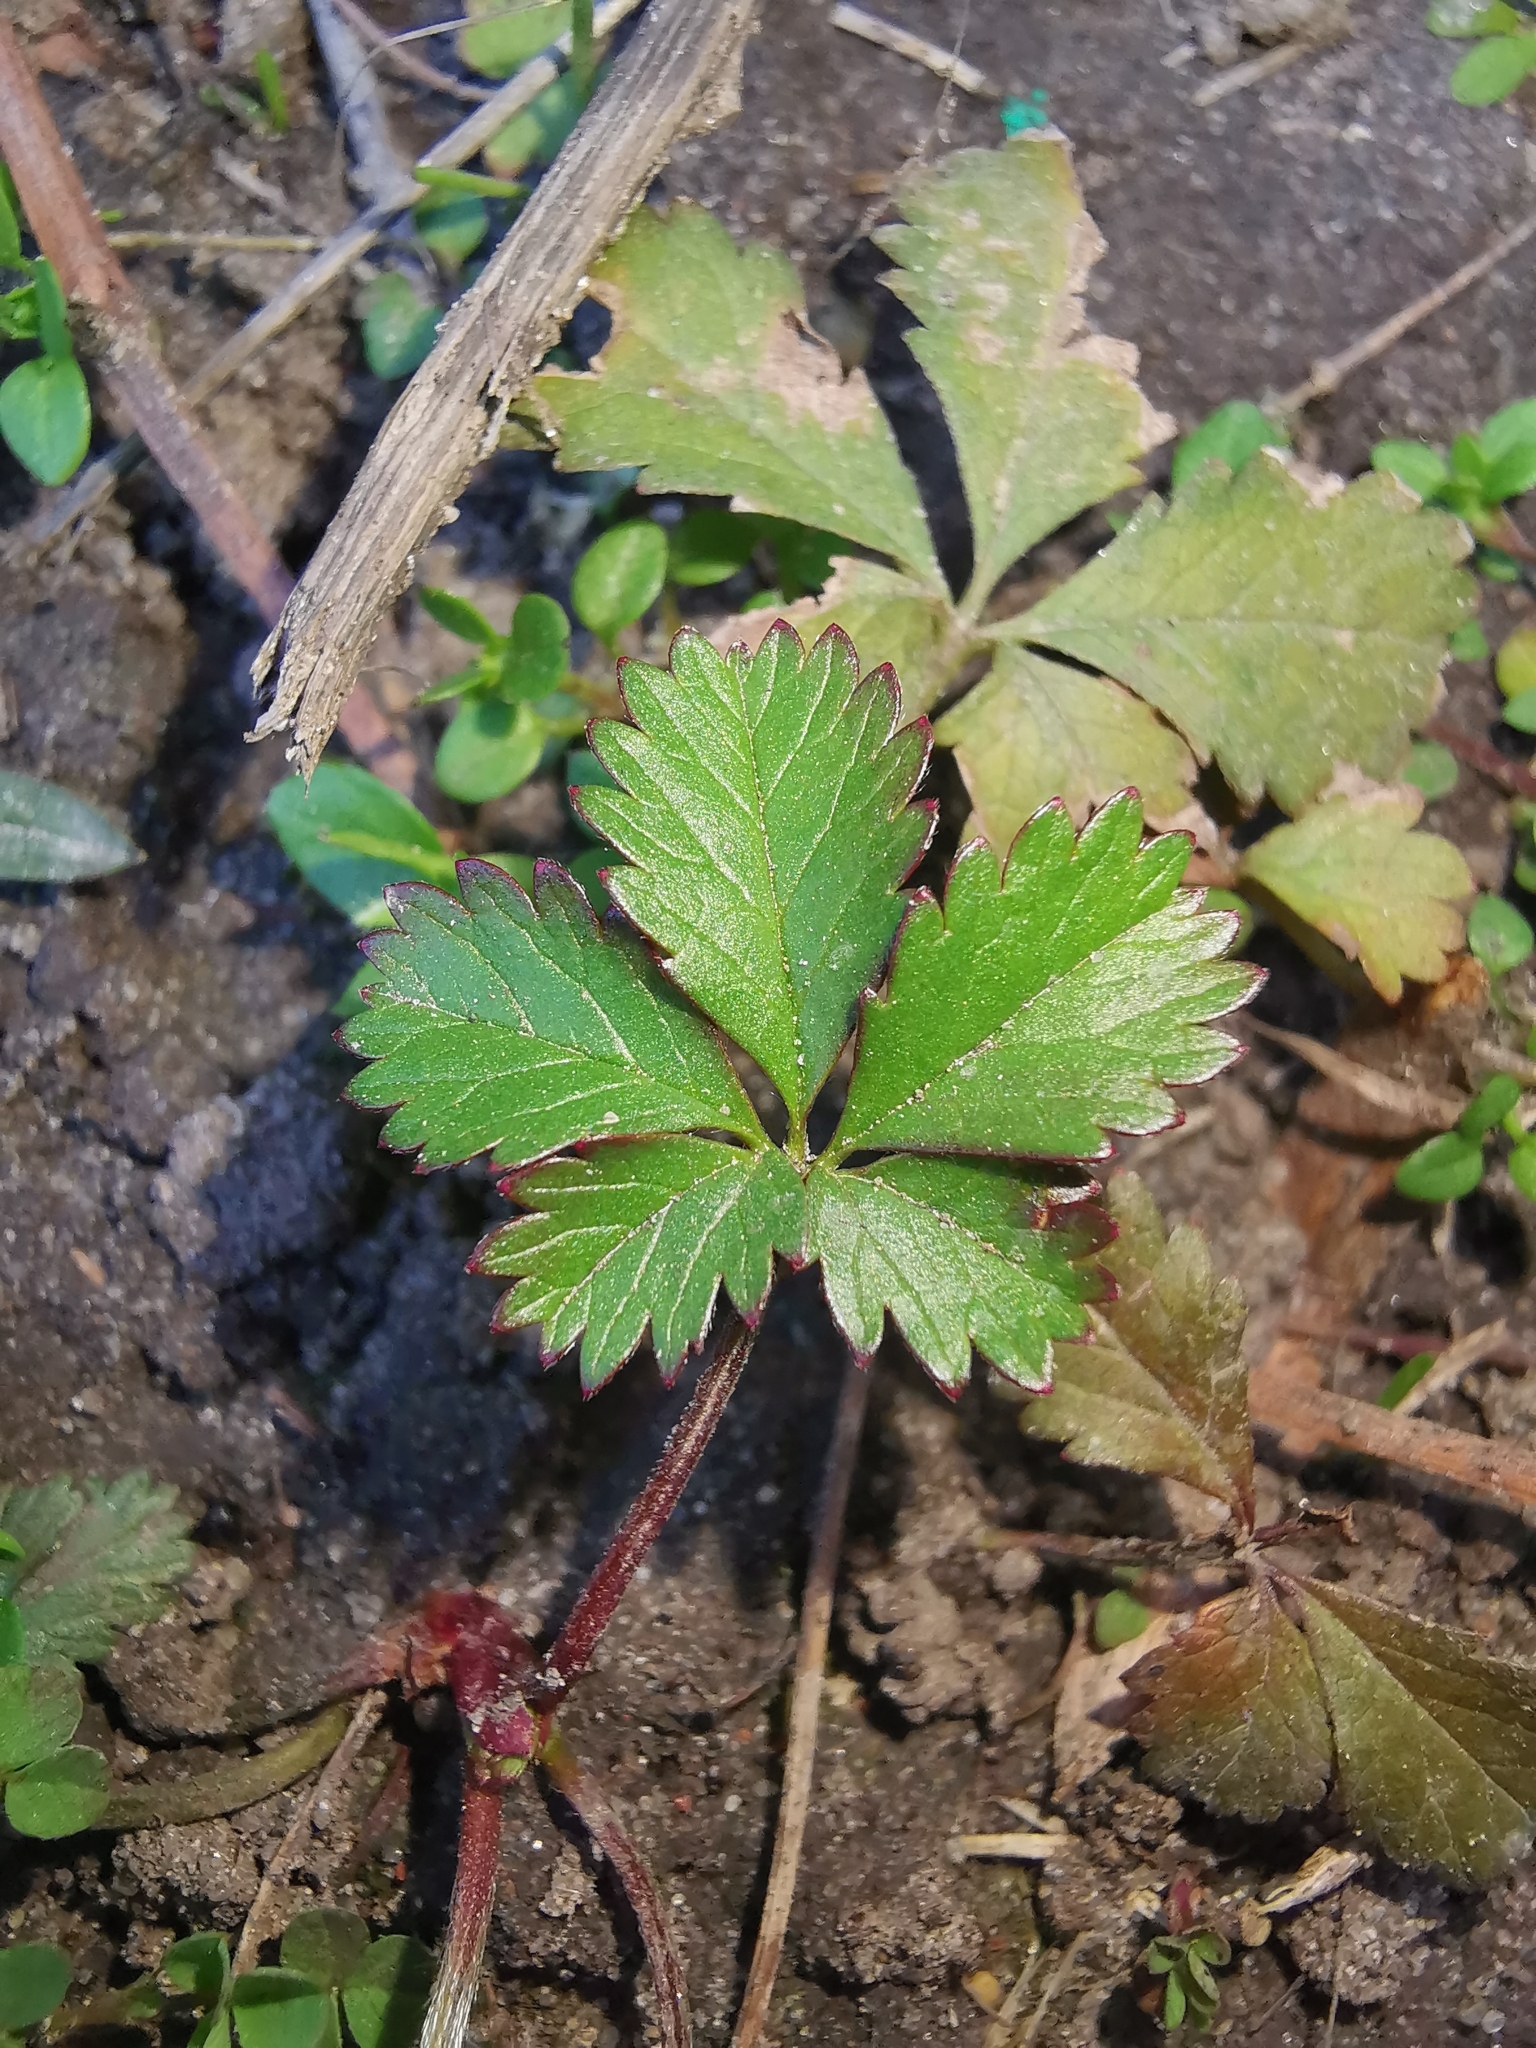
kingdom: Plantae
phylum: Tracheophyta
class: Magnoliopsida
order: Rosales
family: Rosaceae
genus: Potentilla
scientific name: Potentilla reptans
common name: Creeping cinquefoil
